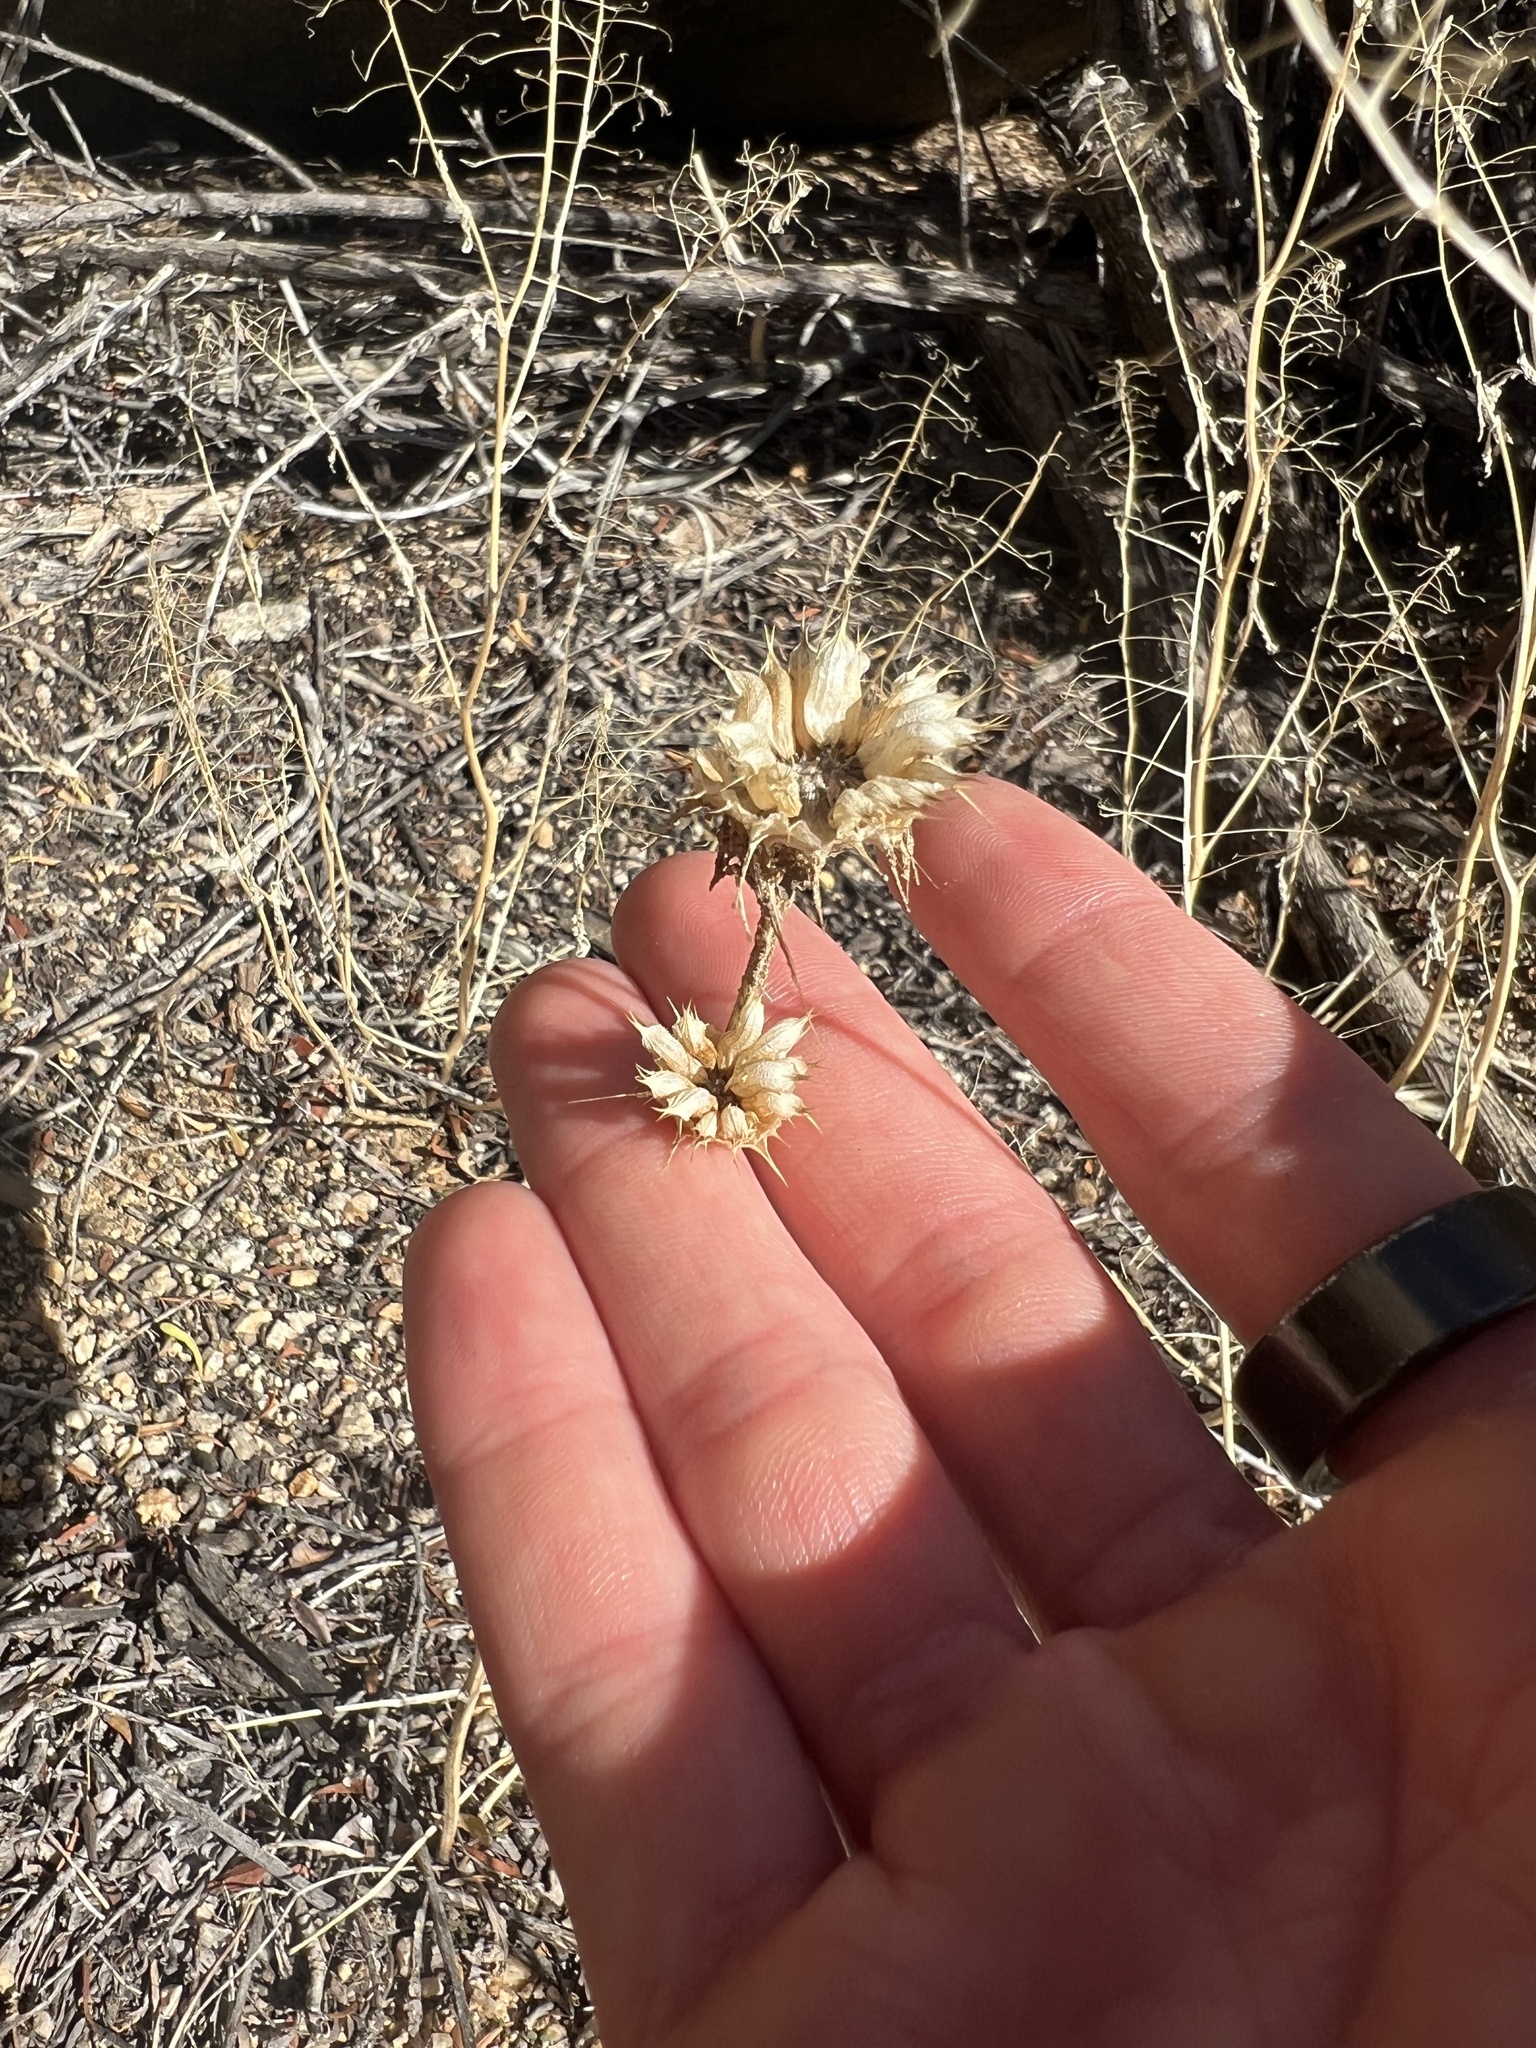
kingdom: Plantae
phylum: Tracheophyta
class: Magnoliopsida
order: Lamiales
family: Lamiaceae
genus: Salvia
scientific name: Salvia columbariae
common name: Chia
